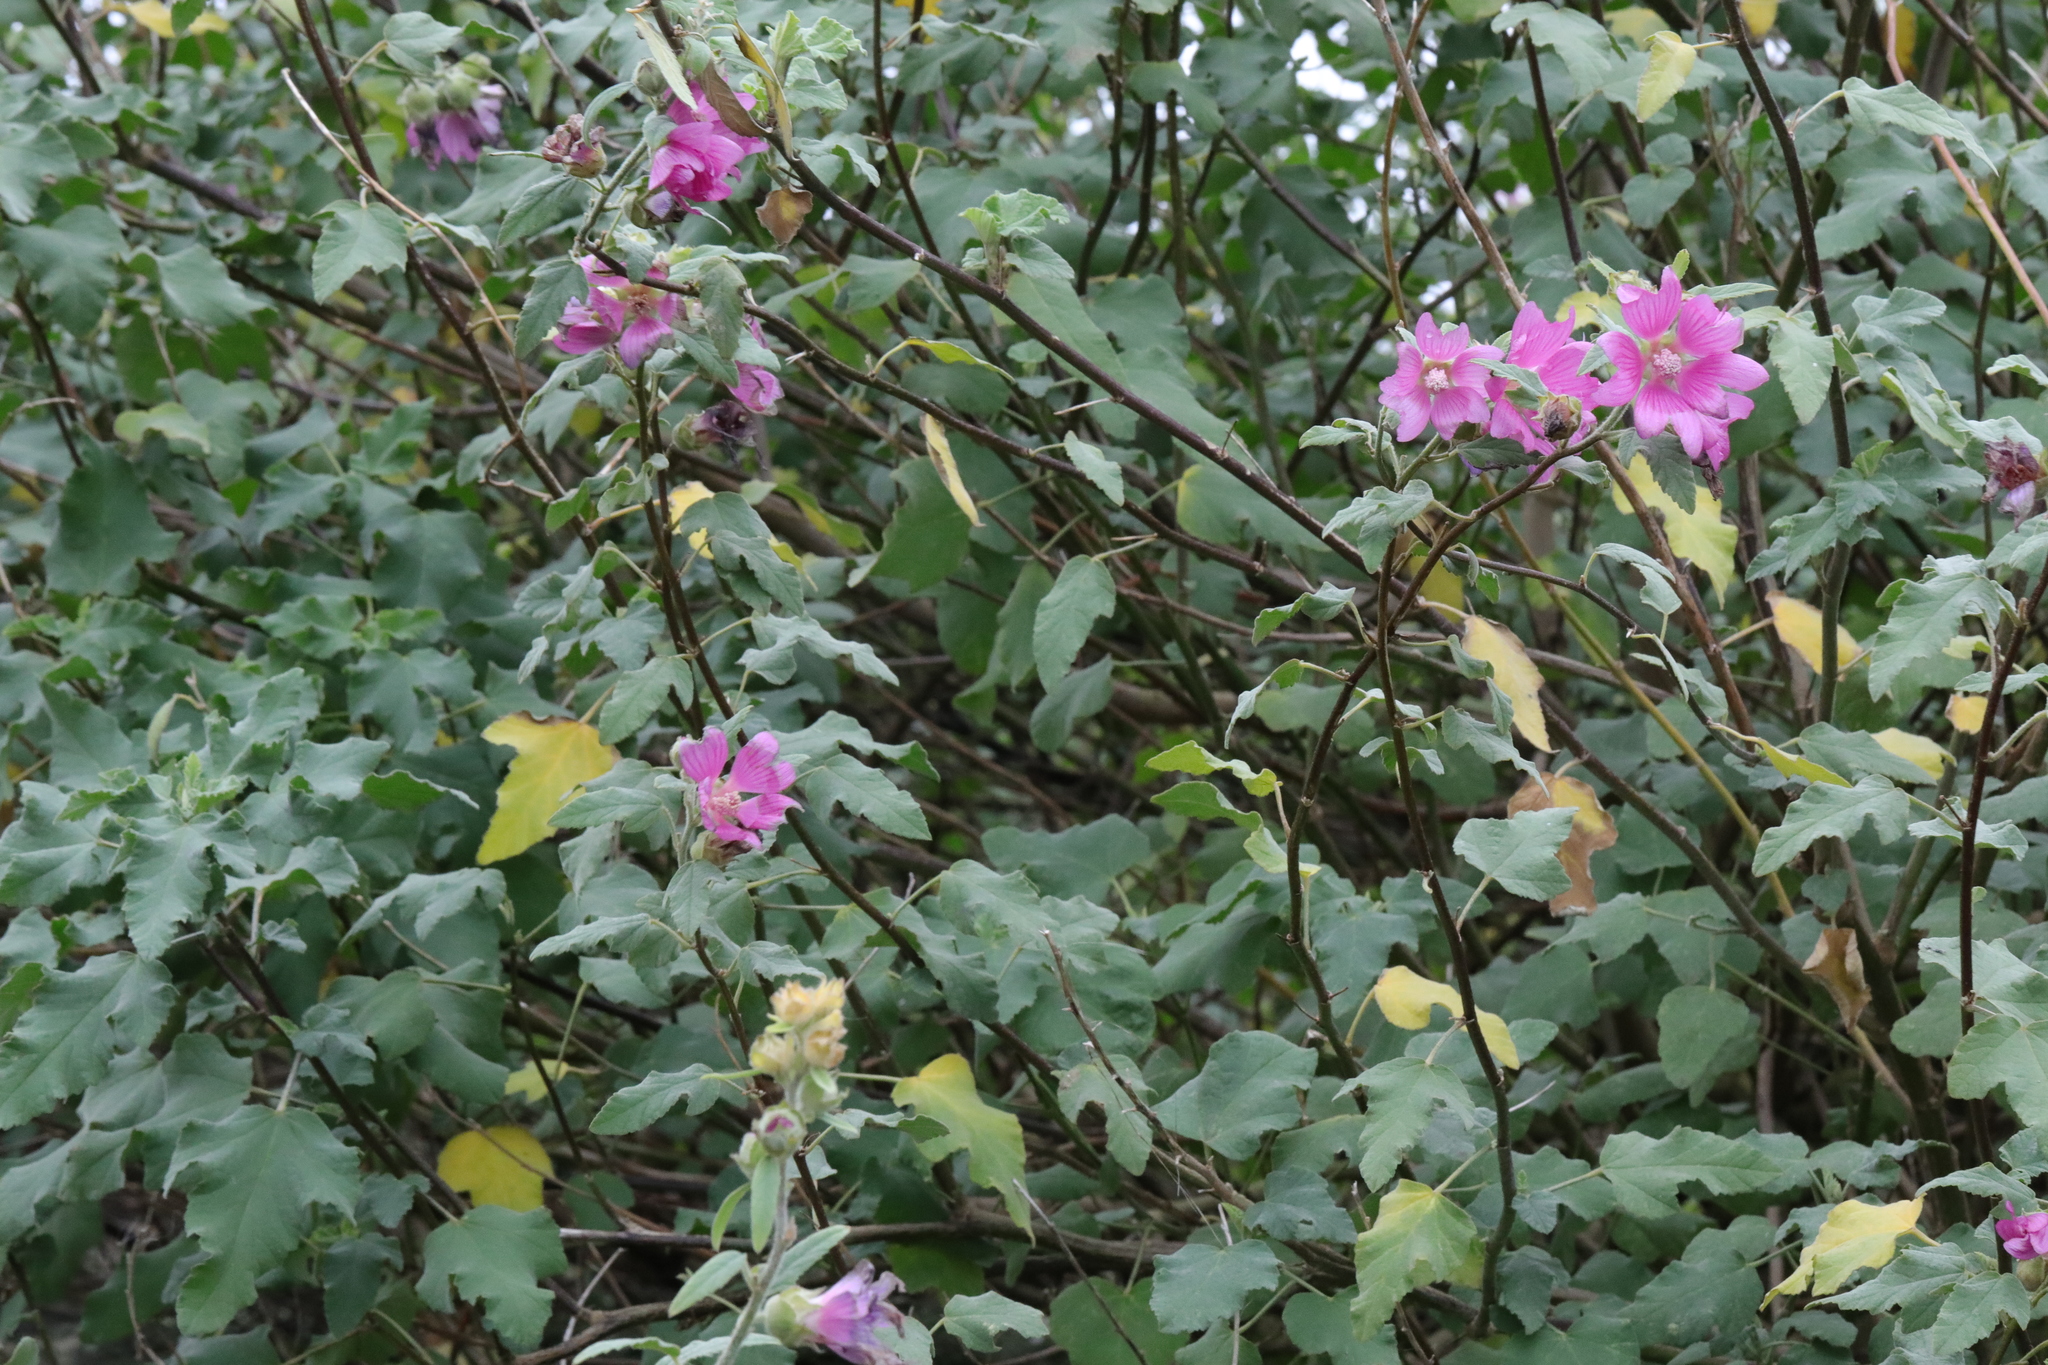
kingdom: Plantae
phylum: Tracheophyta
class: Magnoliopsida
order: Malvales
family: Malvaceae
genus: Malva
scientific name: Malva clementii
